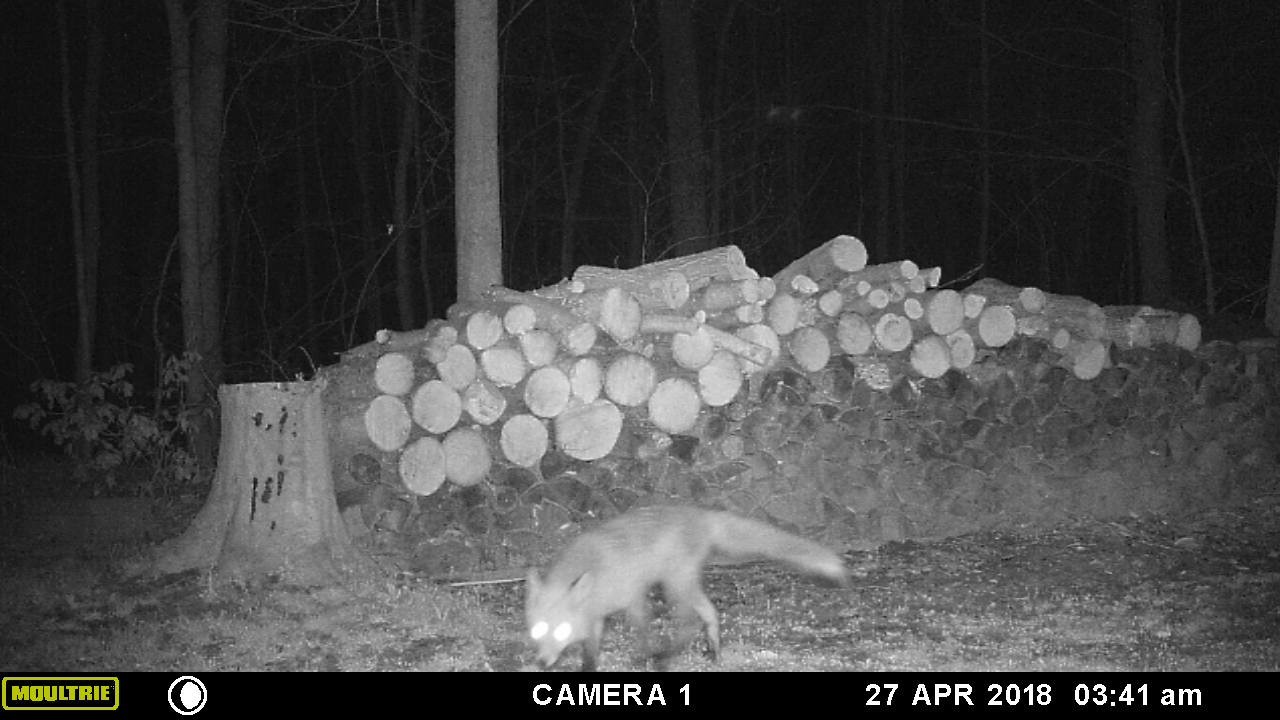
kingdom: Animalia
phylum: Chordata
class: Mammalia
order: Carnivora
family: Canidae
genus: Vulpes
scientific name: Vulpes vulpes
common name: Red fox
